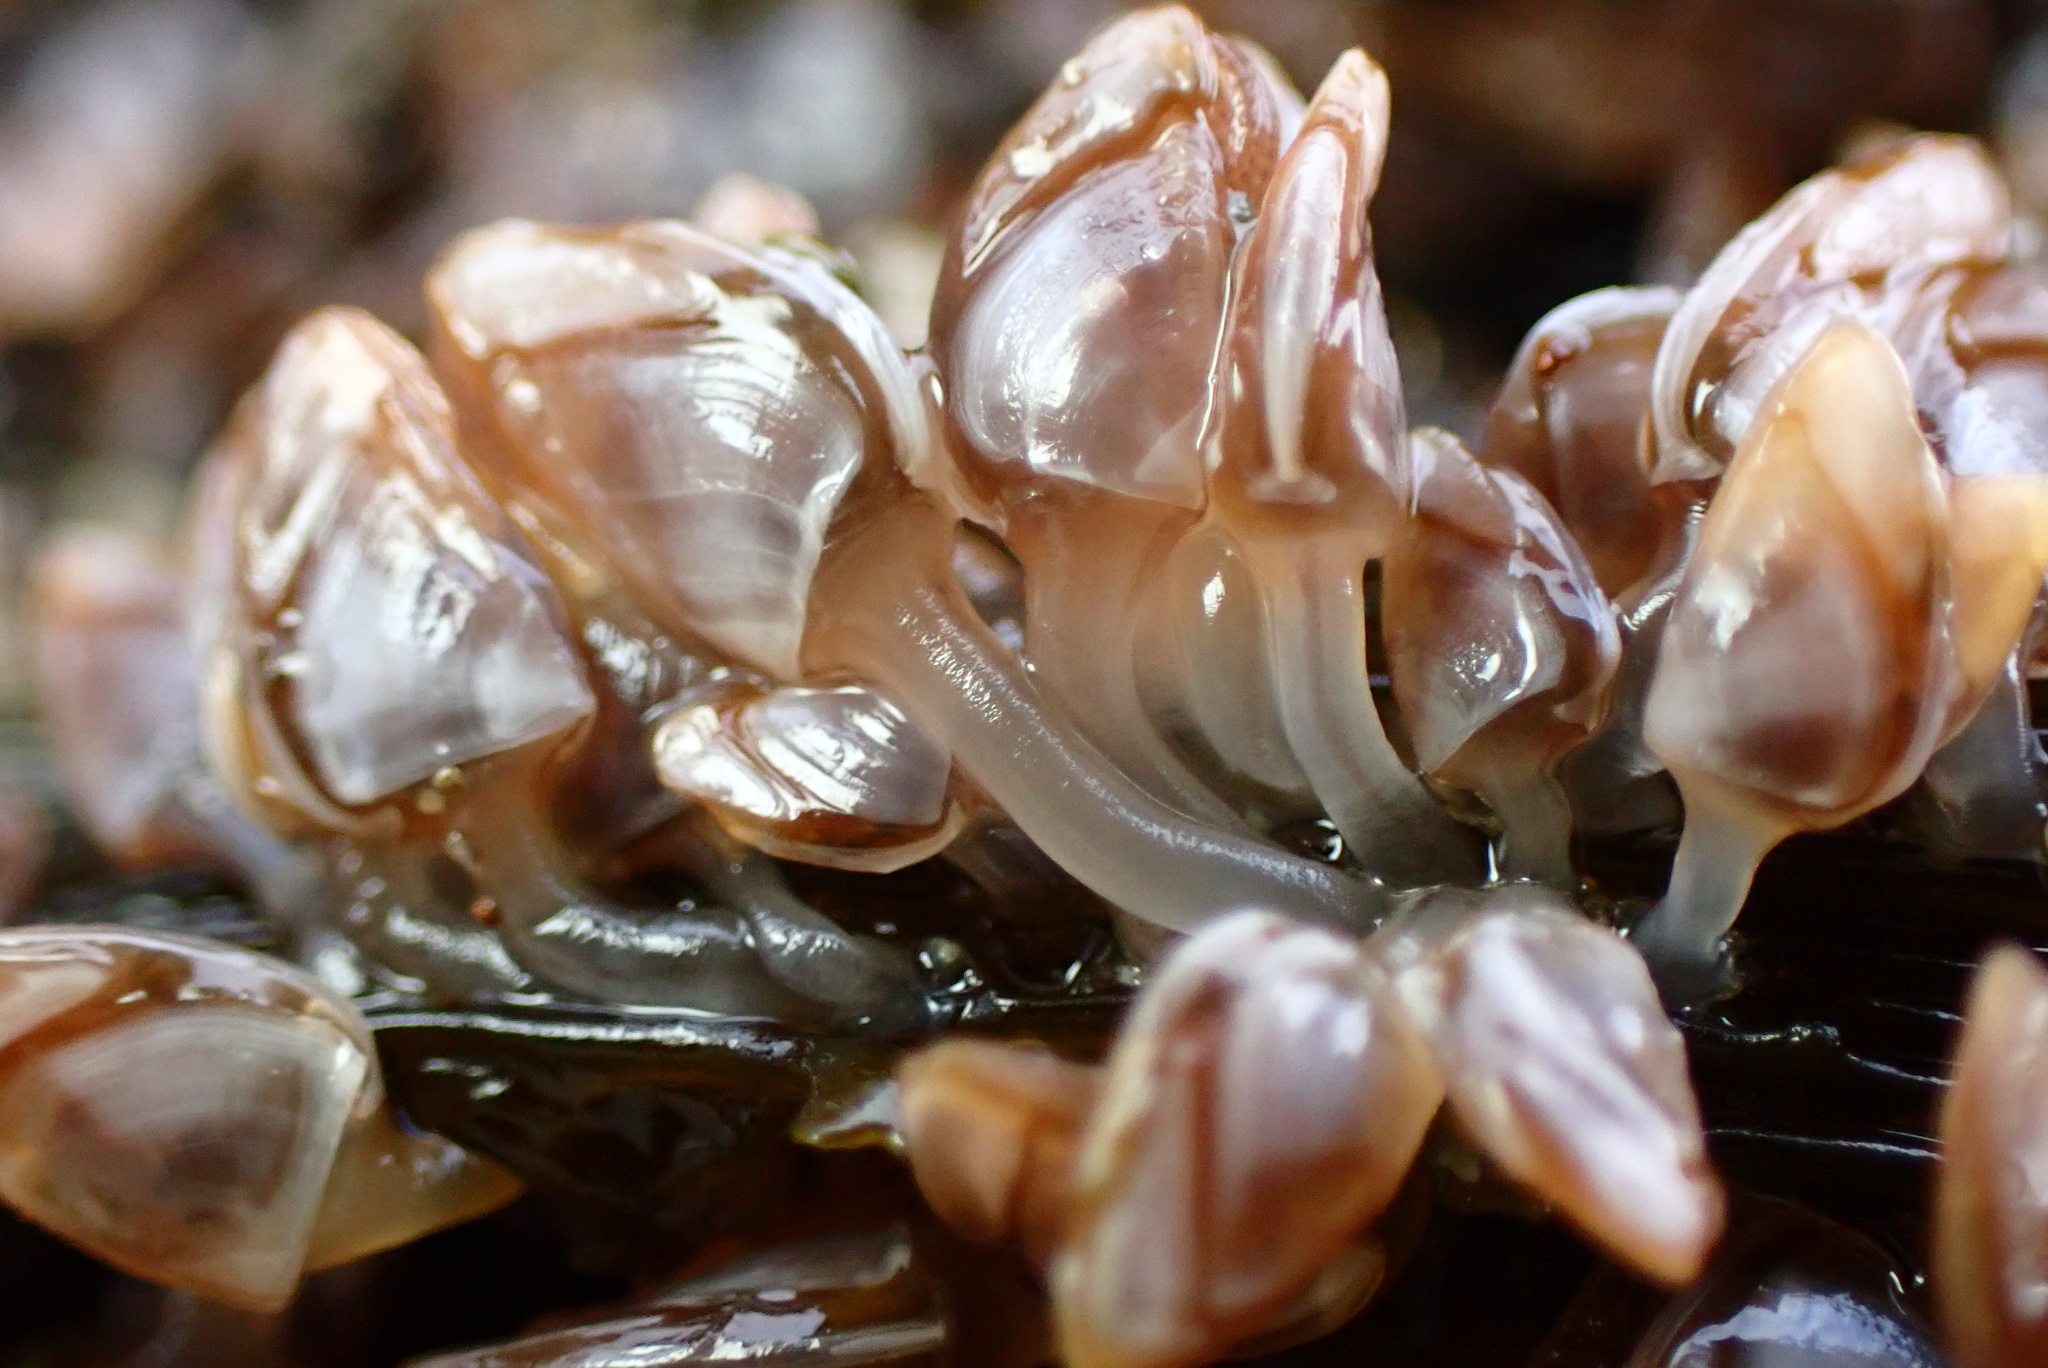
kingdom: Animalia
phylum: Arthropoda
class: Maxillopoda
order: Pedunculata
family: Lepadidae
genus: Lepas
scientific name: Lepas pacifica
